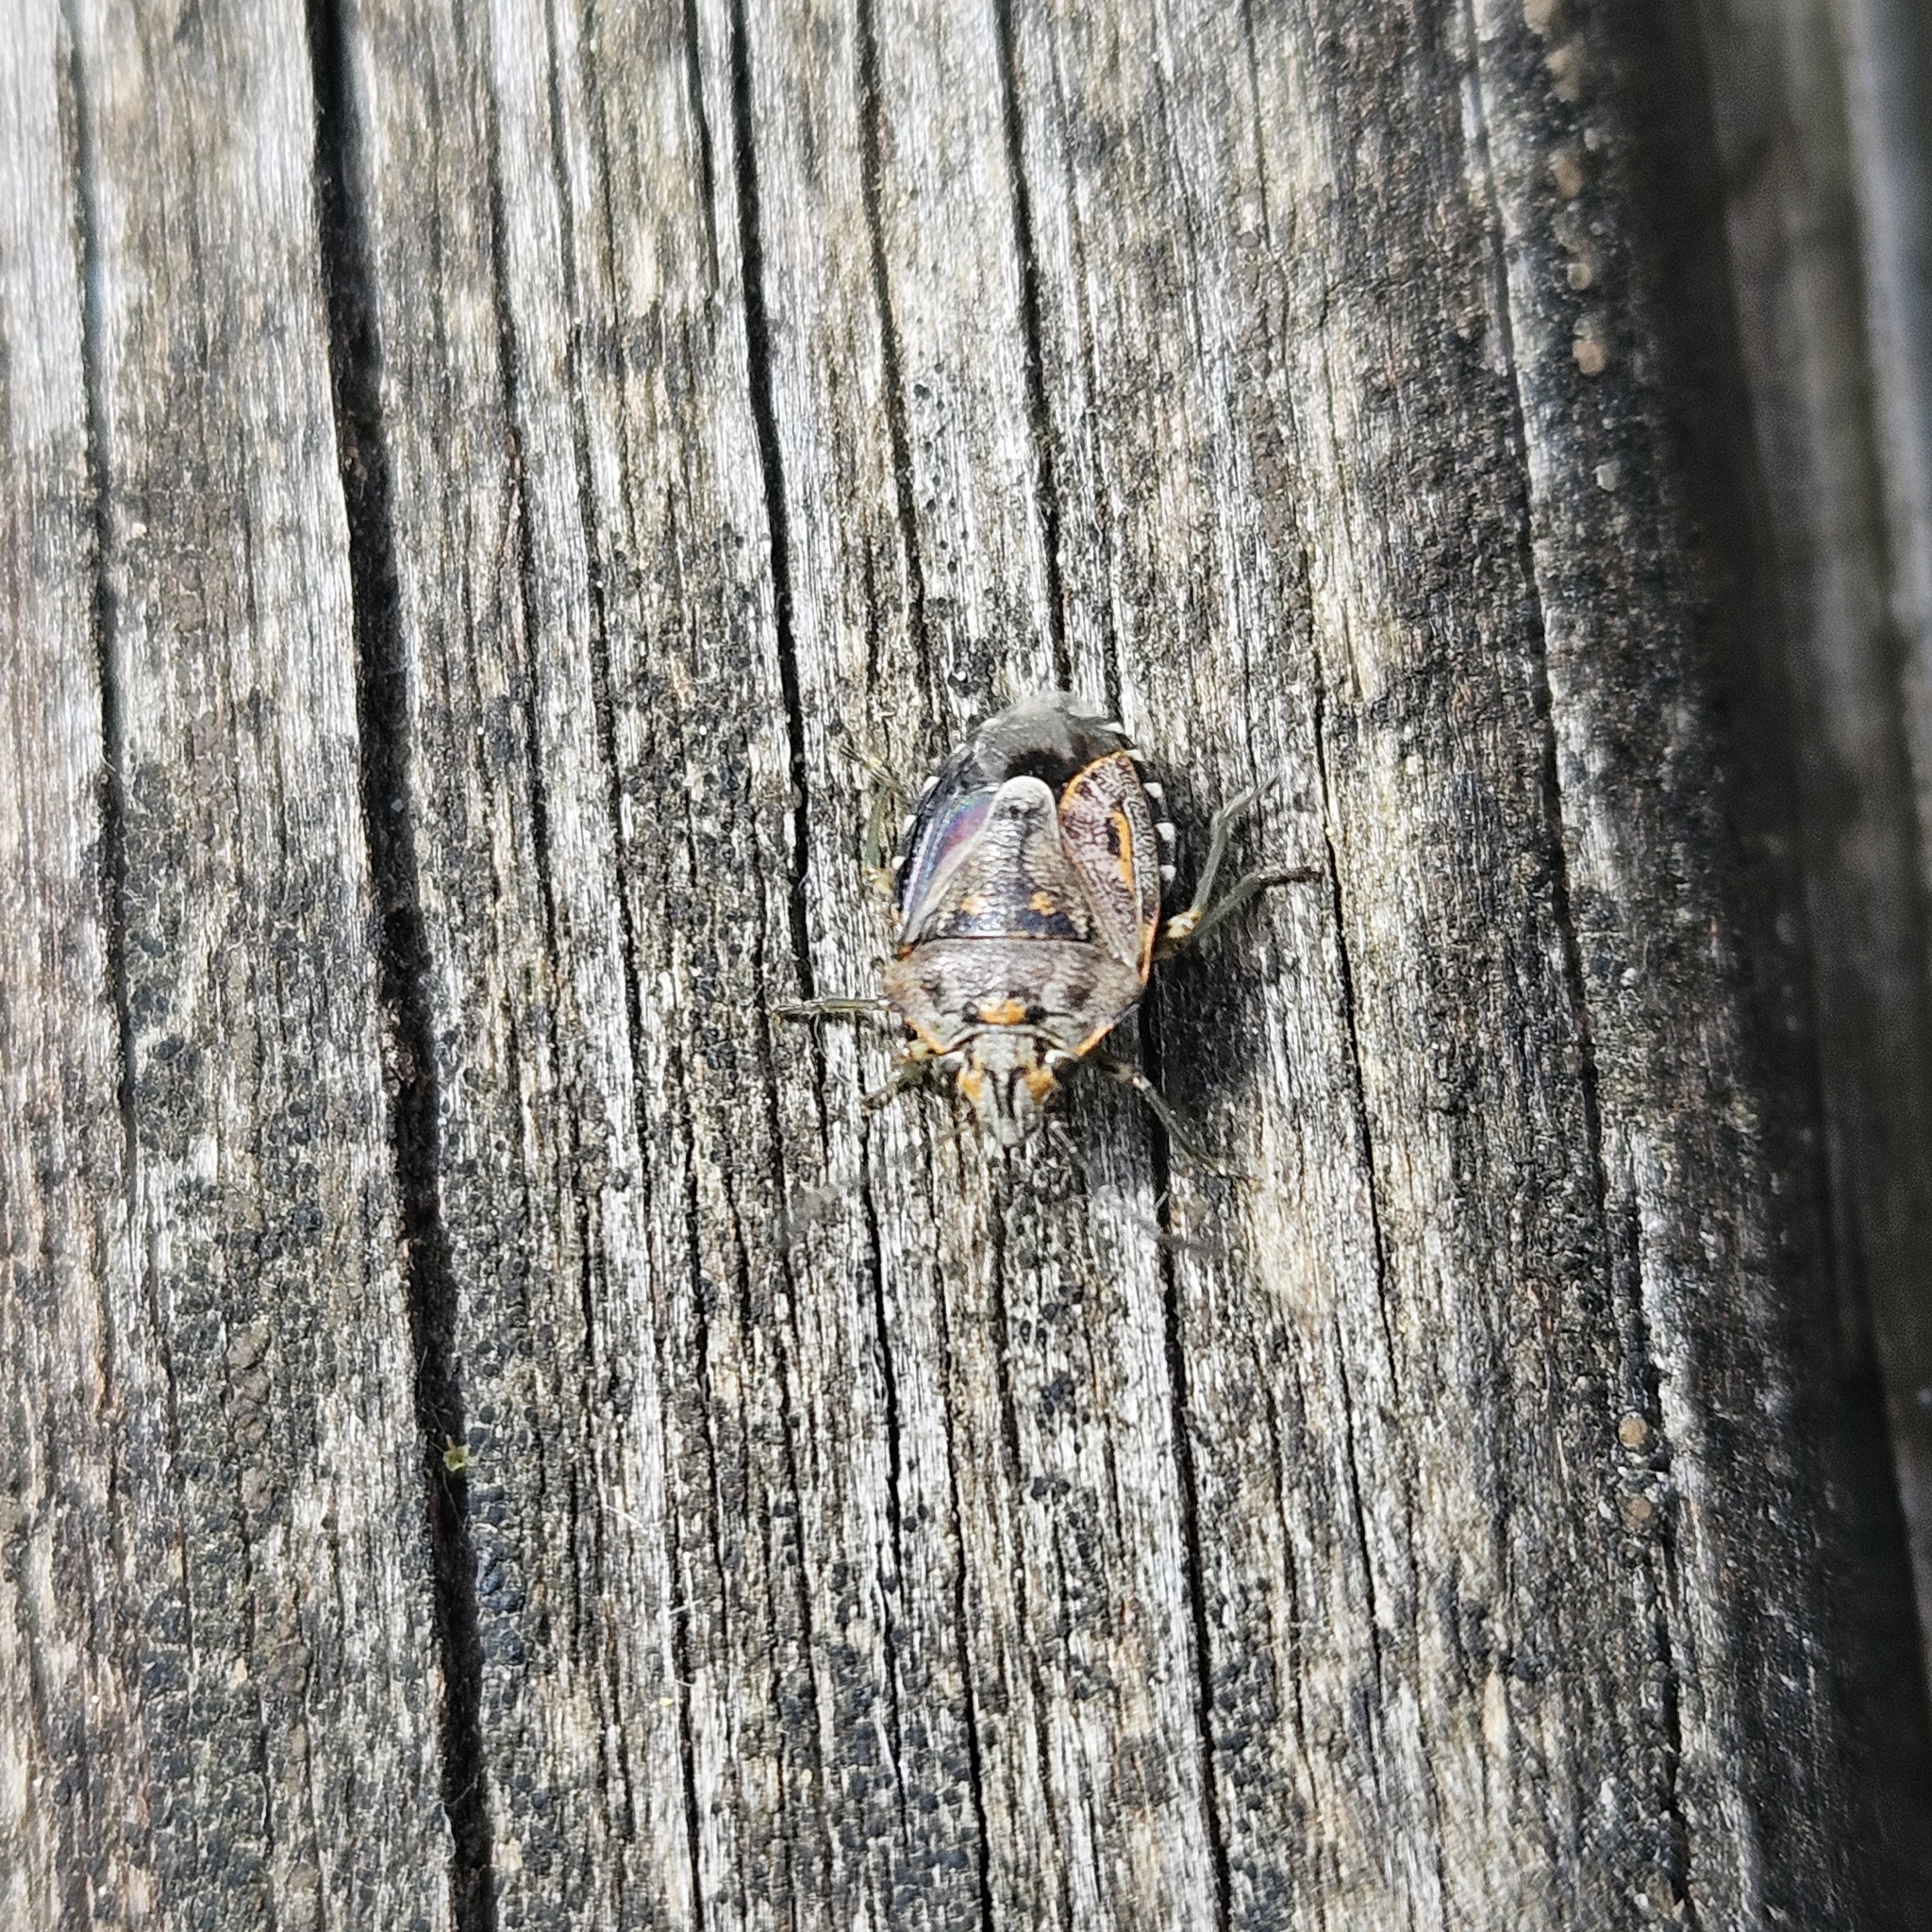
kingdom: Animalia
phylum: Arthropoda
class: Insecta
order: Hemiptera
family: Pentatomidae
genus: Holcogaster
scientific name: Holcogaster fibulata
